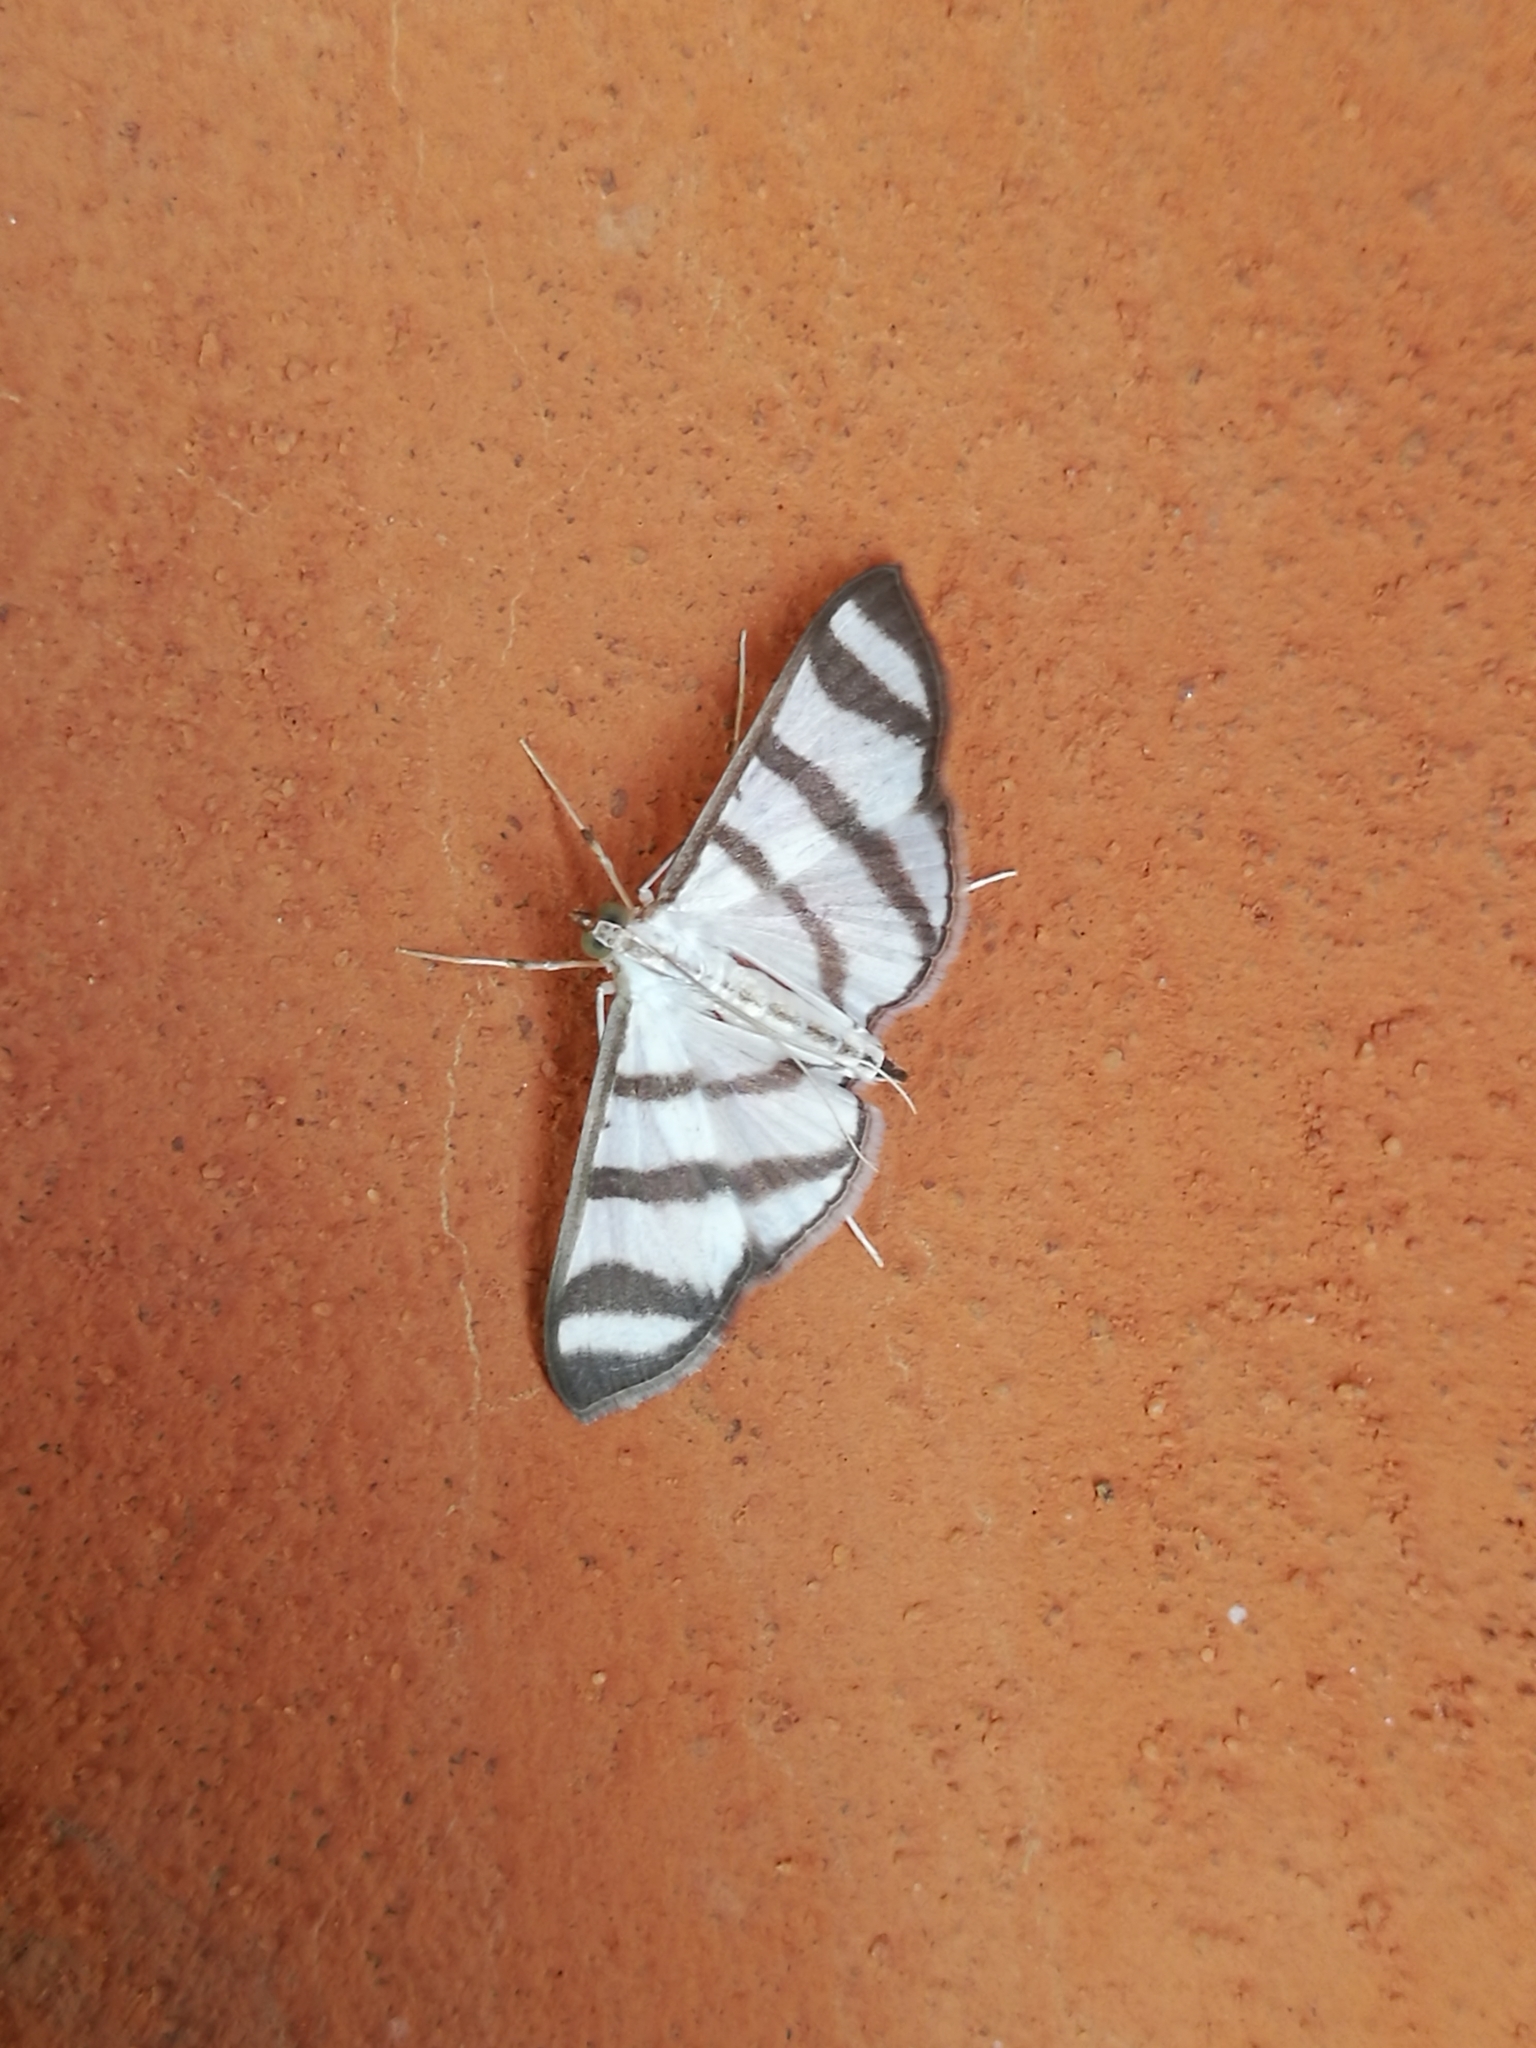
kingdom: Animalia
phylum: Arthropoda
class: Insecta
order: Lepidoptera
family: Crambidae
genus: Zebronia
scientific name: Zebronia phenice
